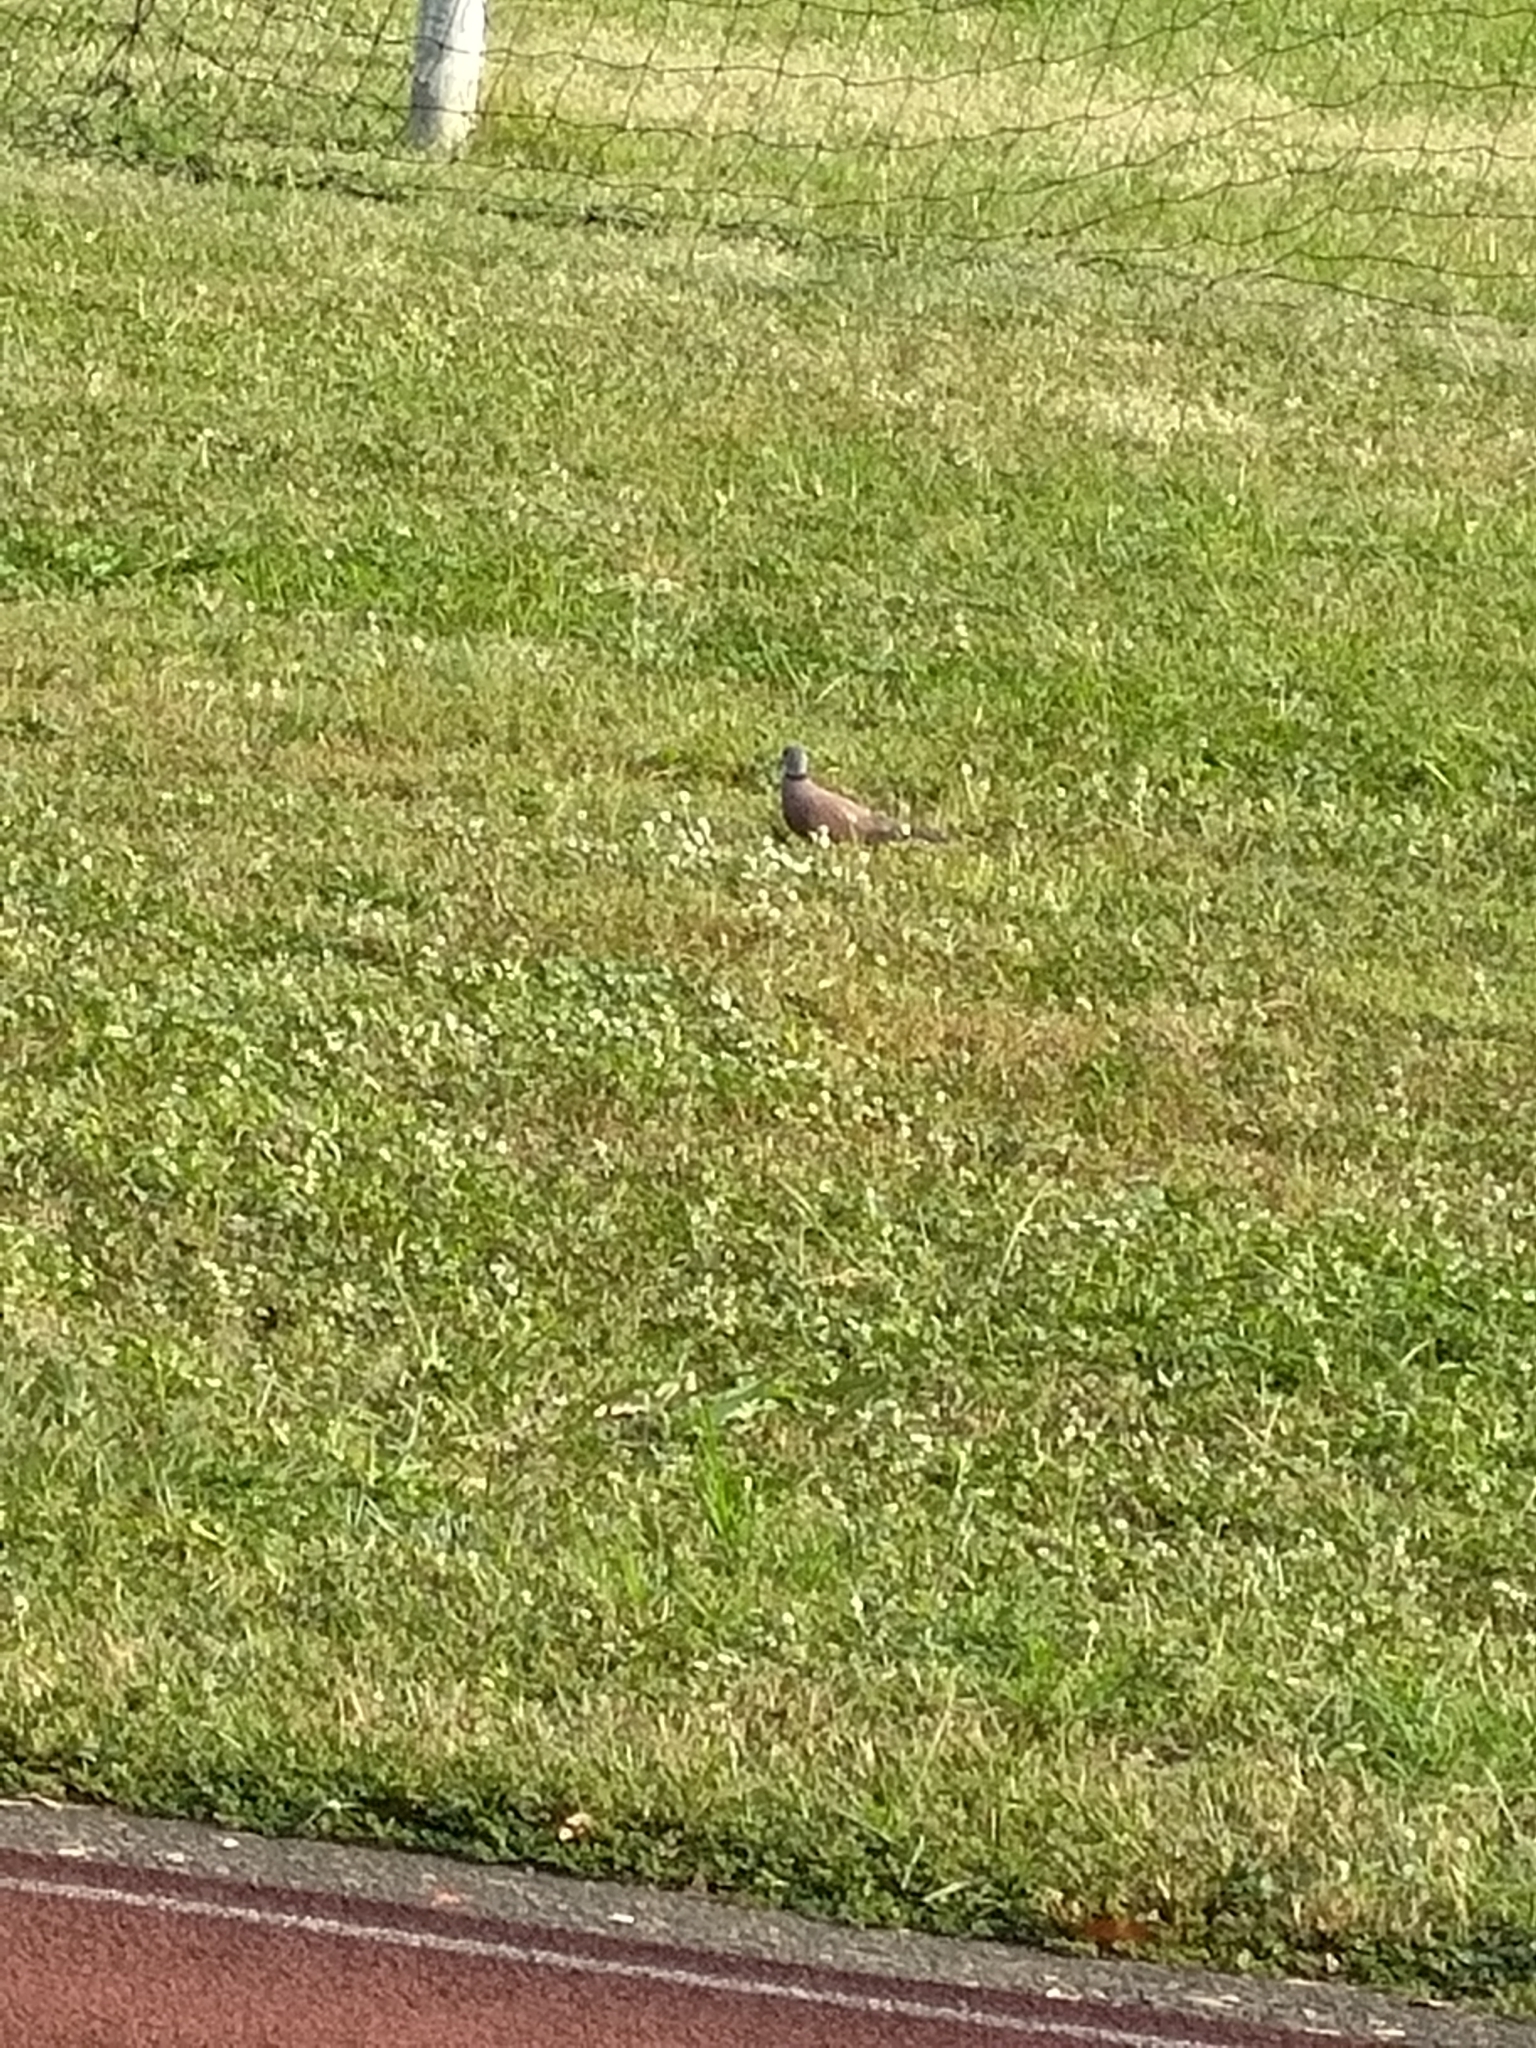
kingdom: Animalia
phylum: Chordata
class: Aves
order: Columbiformes
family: Columbidae
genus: Streptopelia
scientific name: Streptopelia tranquebarica
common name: Red turtle dove
